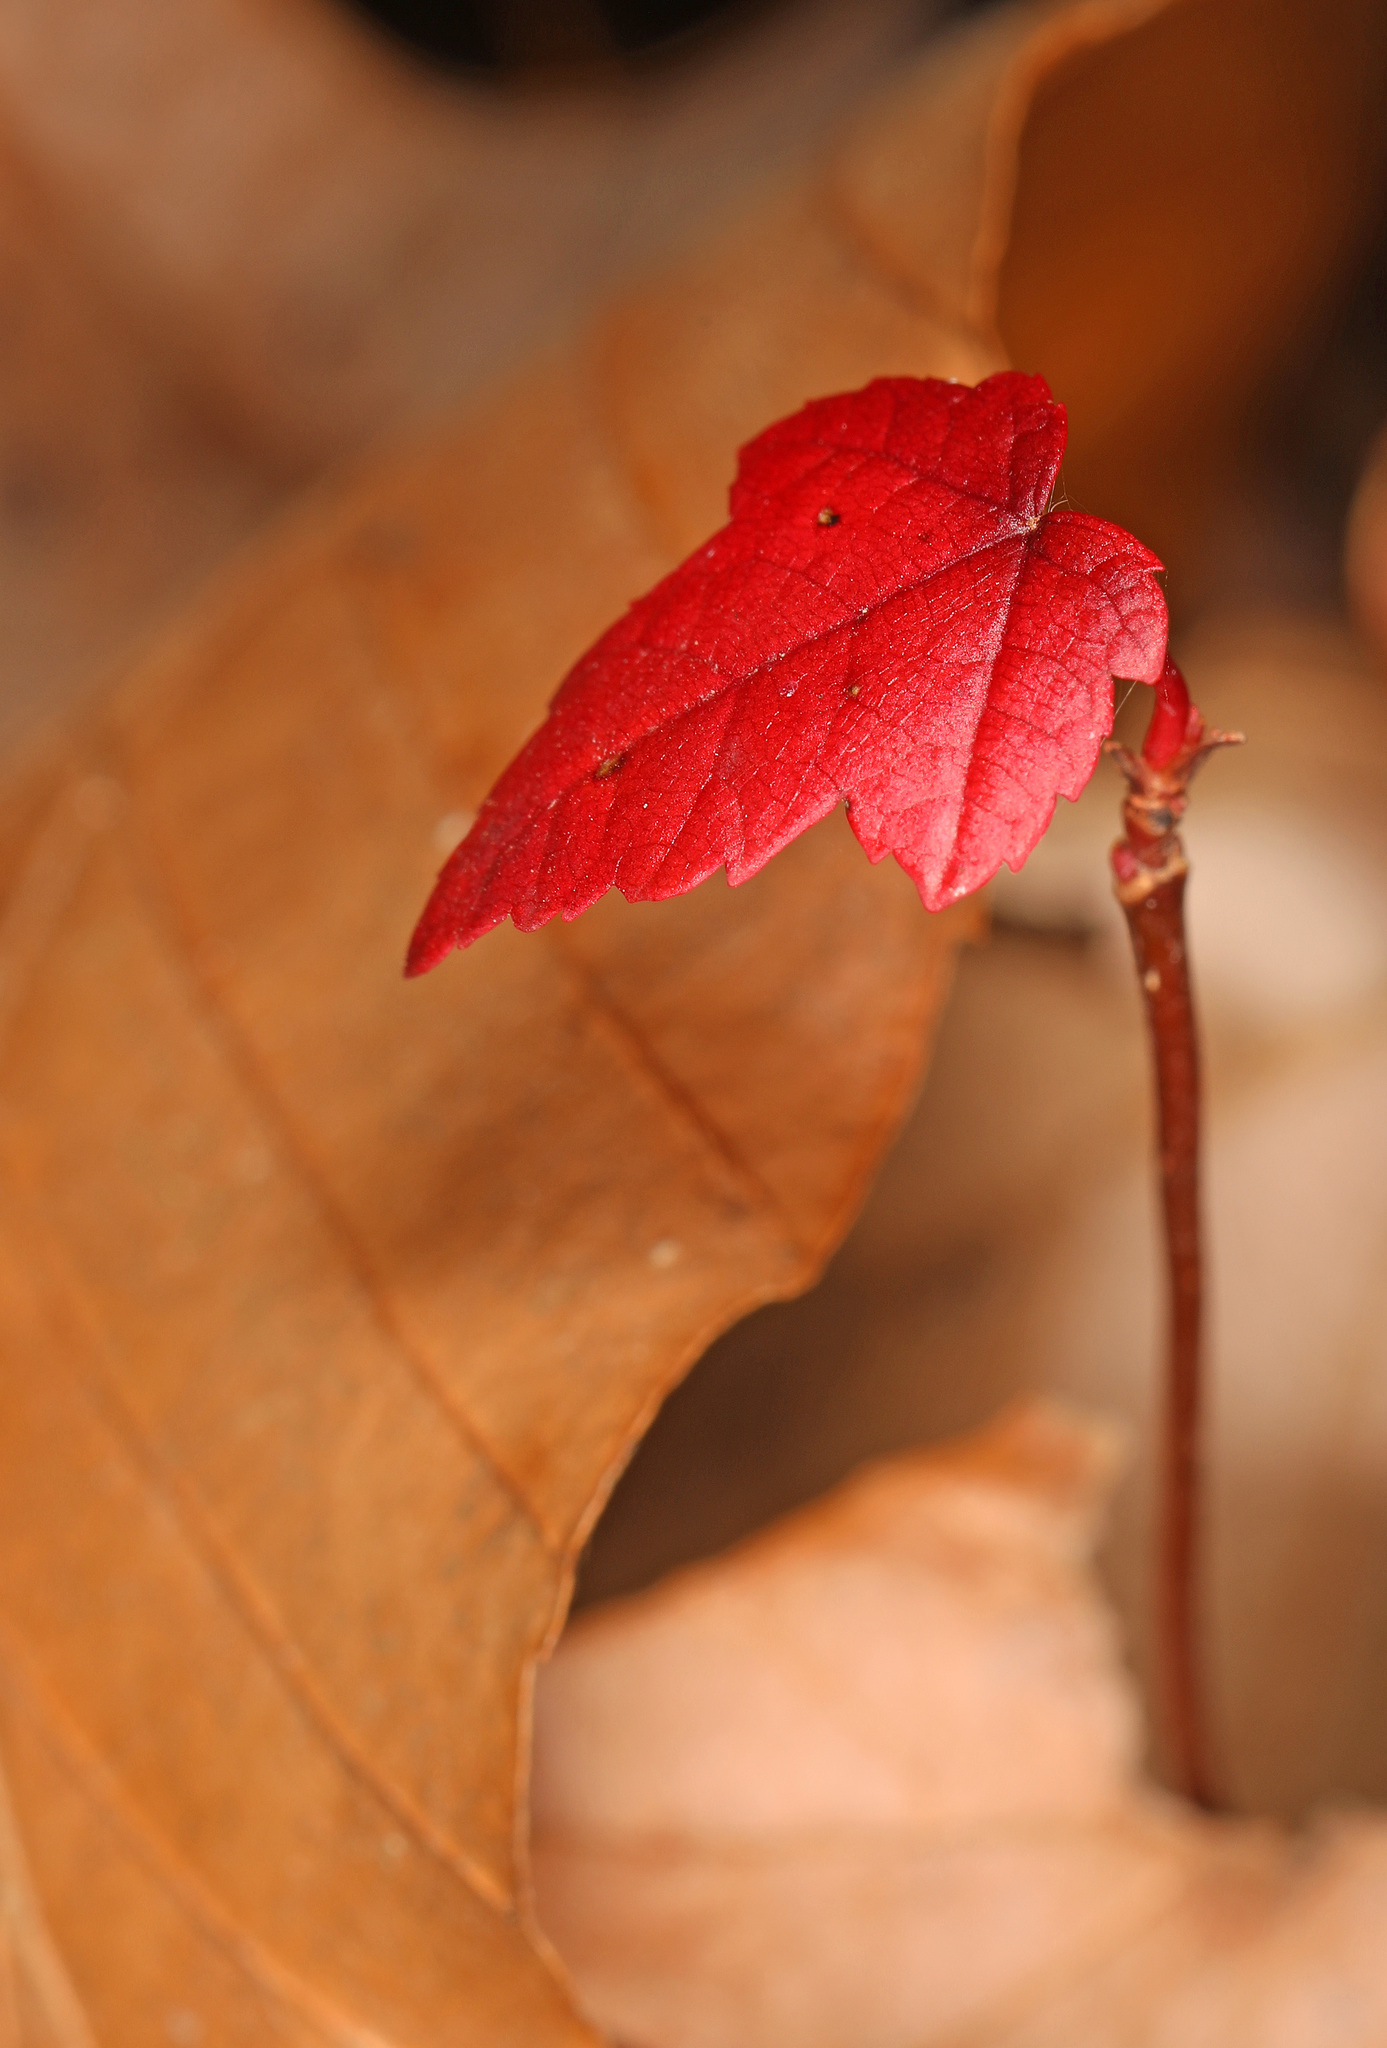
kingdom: Plantae
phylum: Tracheophyta
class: Magnoliopsida
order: Sapindales
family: Sapindaceae
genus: Acer
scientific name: Acer rubrum
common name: Red maple
